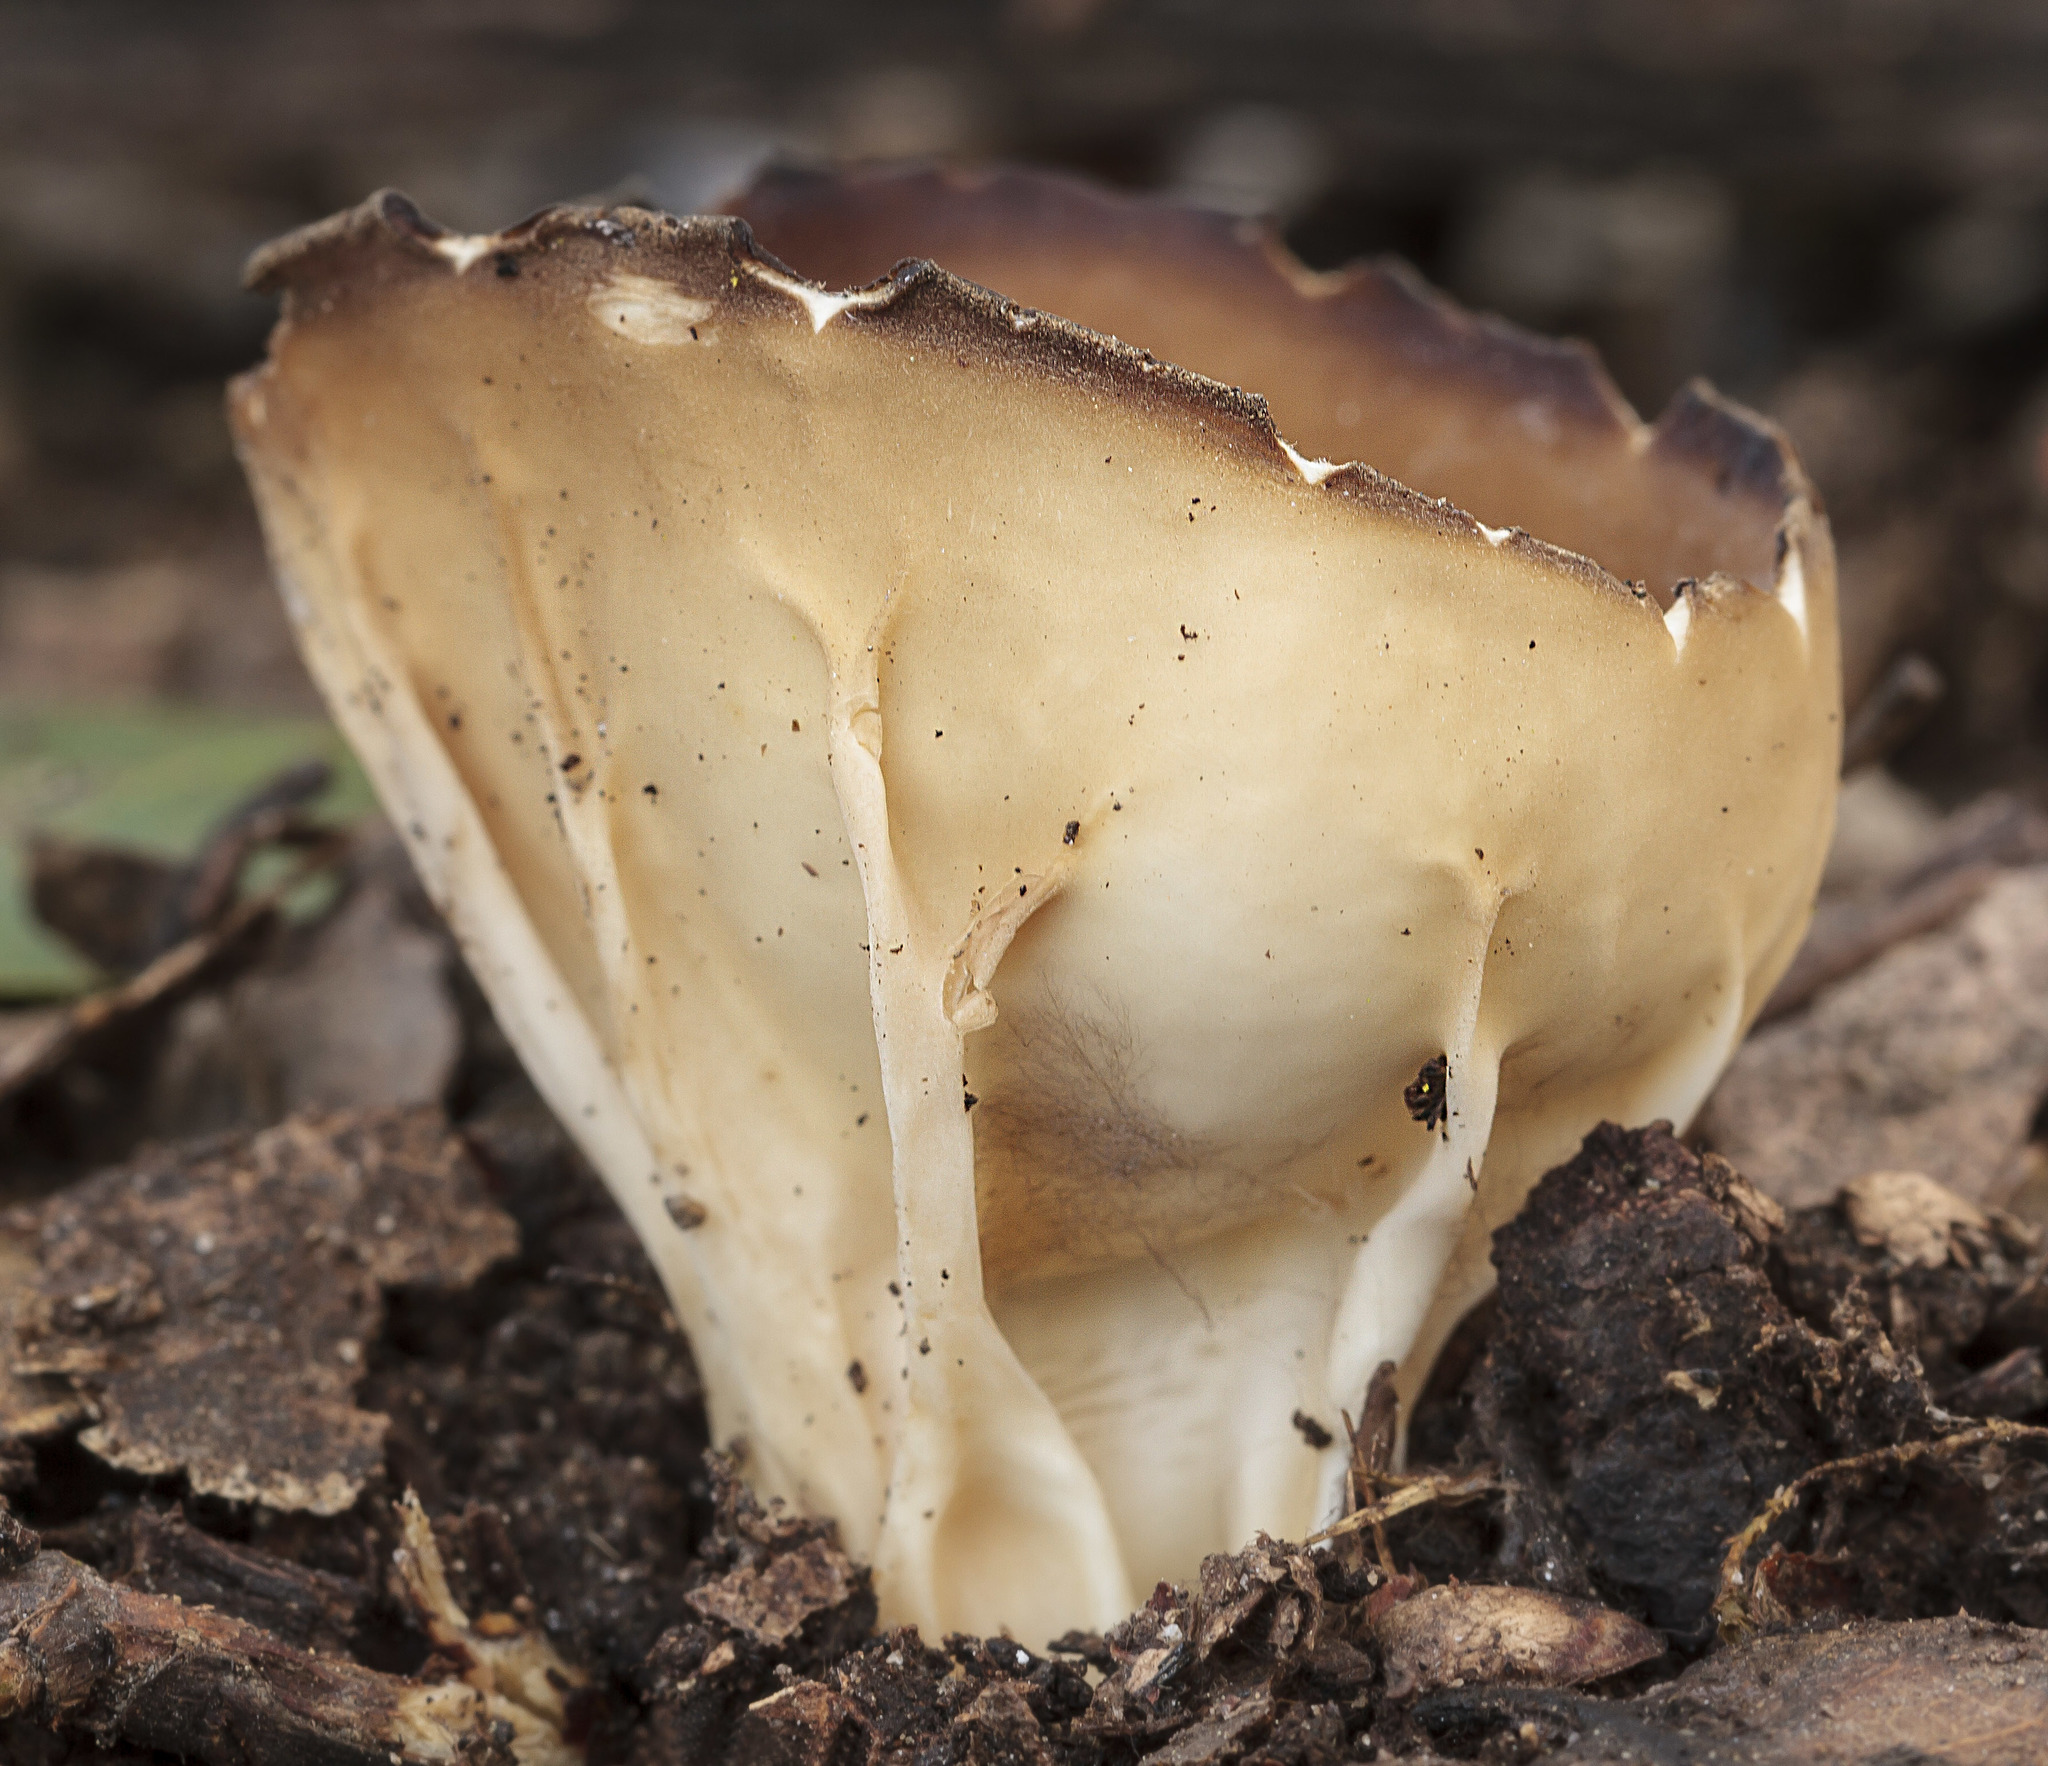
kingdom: Fungi
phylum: Ascomycota
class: Pezizomycetes
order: Pezizales
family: Helvellaceae
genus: Helvella
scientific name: Helvella acetabulum
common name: Vinegar cup
